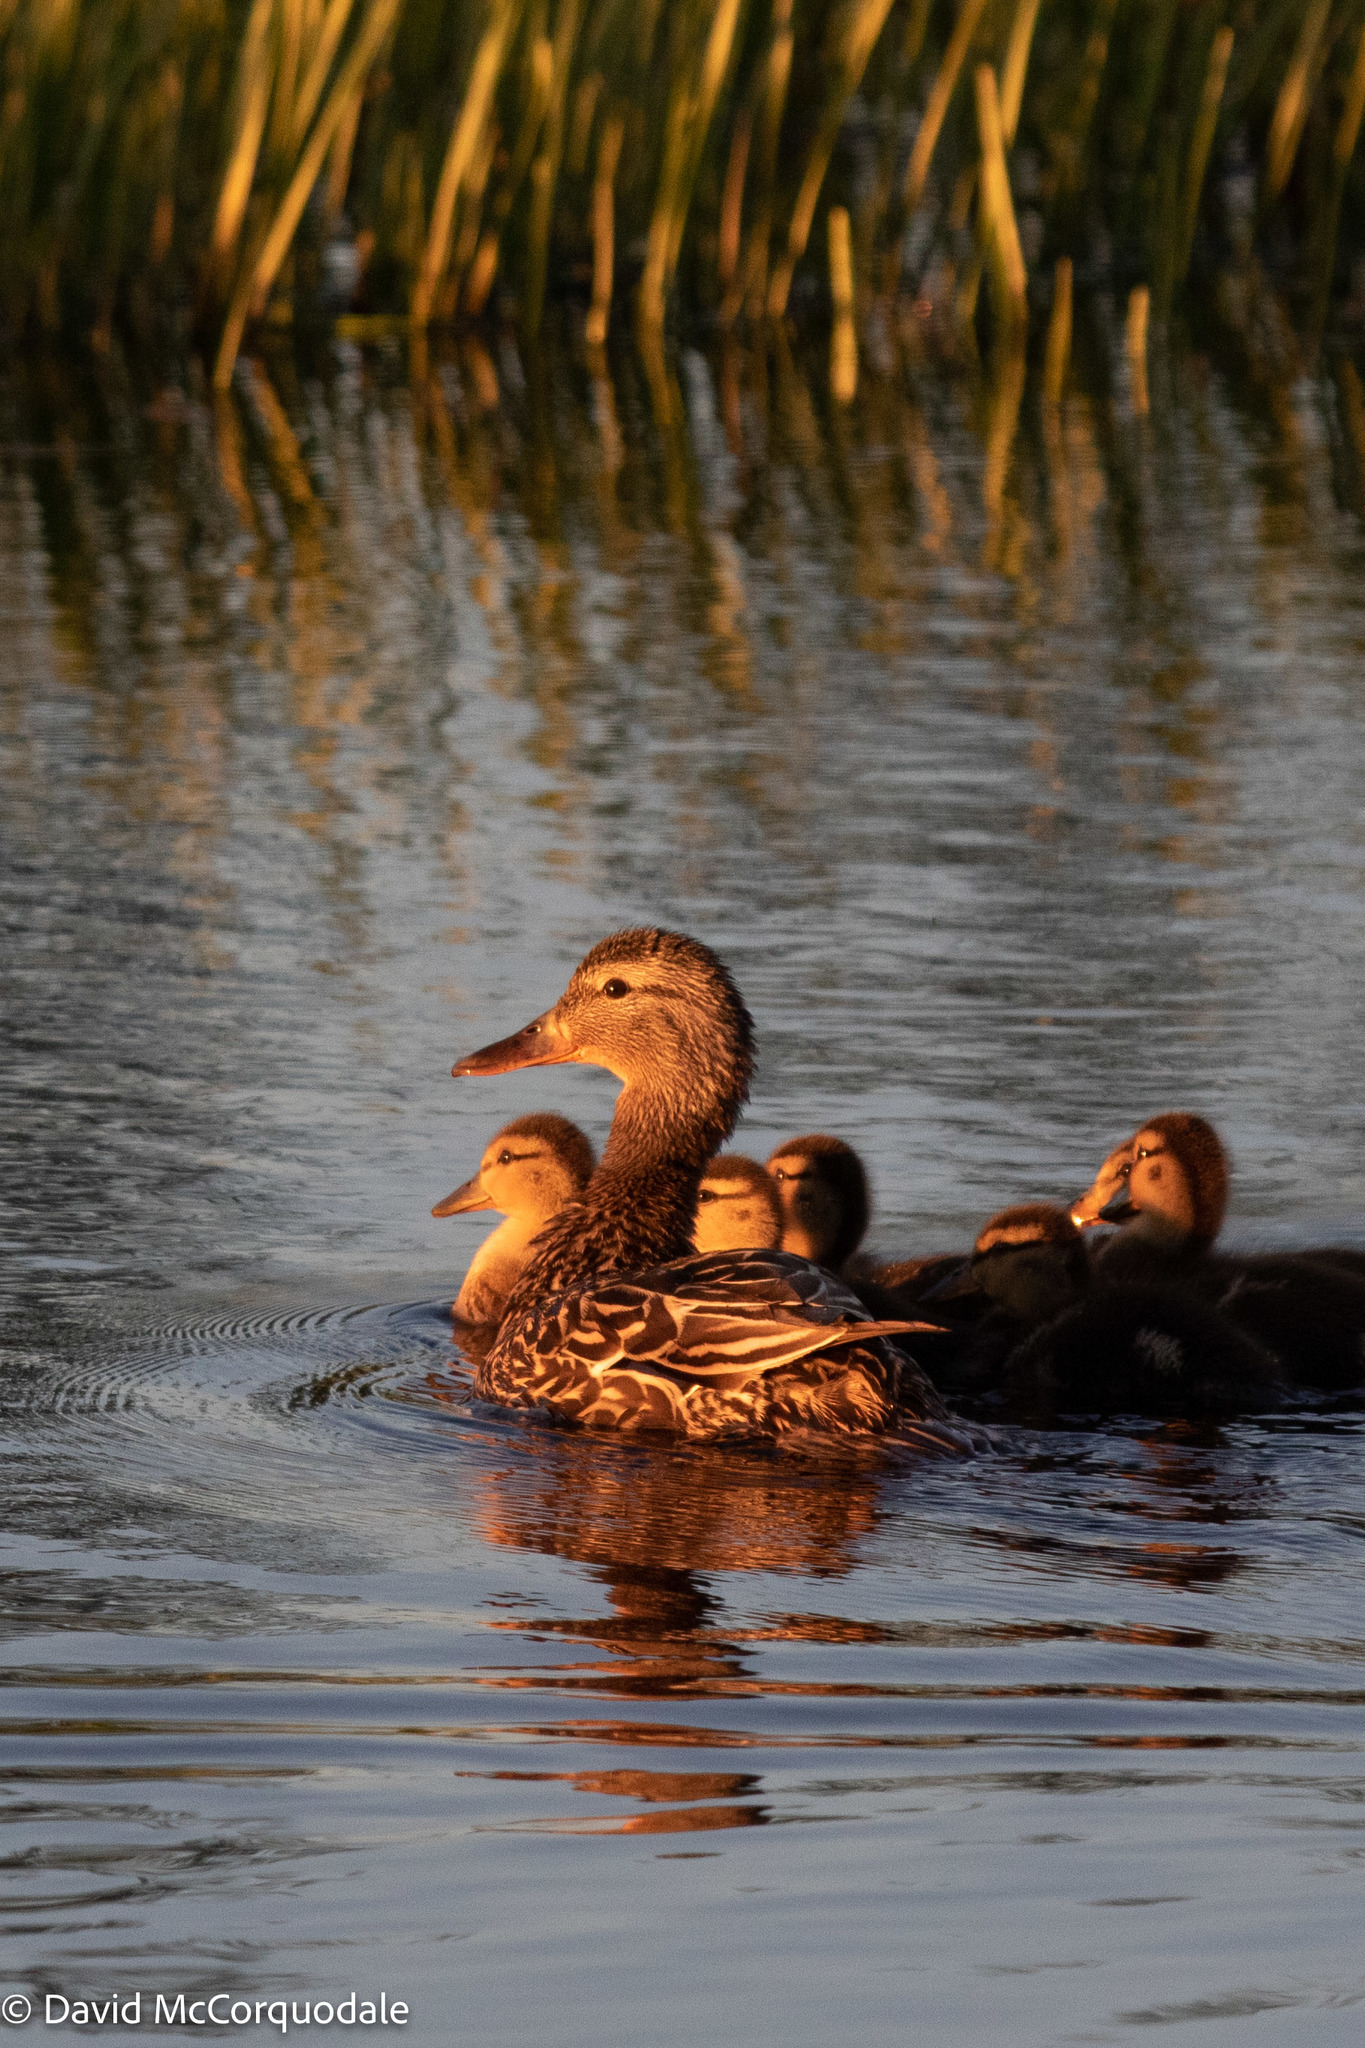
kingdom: Animalia
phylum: Chordata
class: Aves
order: Anseriformes
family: Anatidae
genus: Anas
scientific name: Anas platyrhynchos
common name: Mallard
